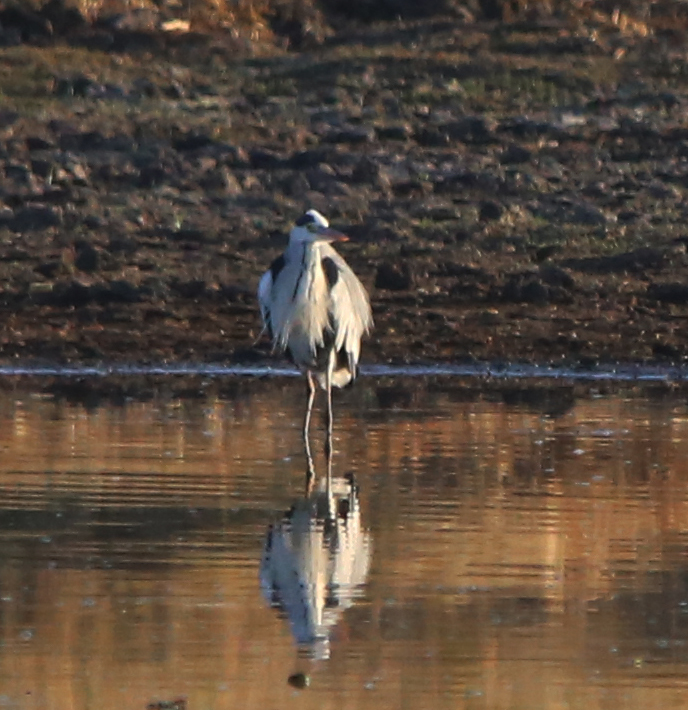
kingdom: Animalia
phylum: Chordata
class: Aves
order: Pelecaniformes
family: Ardeidae
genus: Ardea
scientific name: Ardea cinerea
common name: Grey heron
